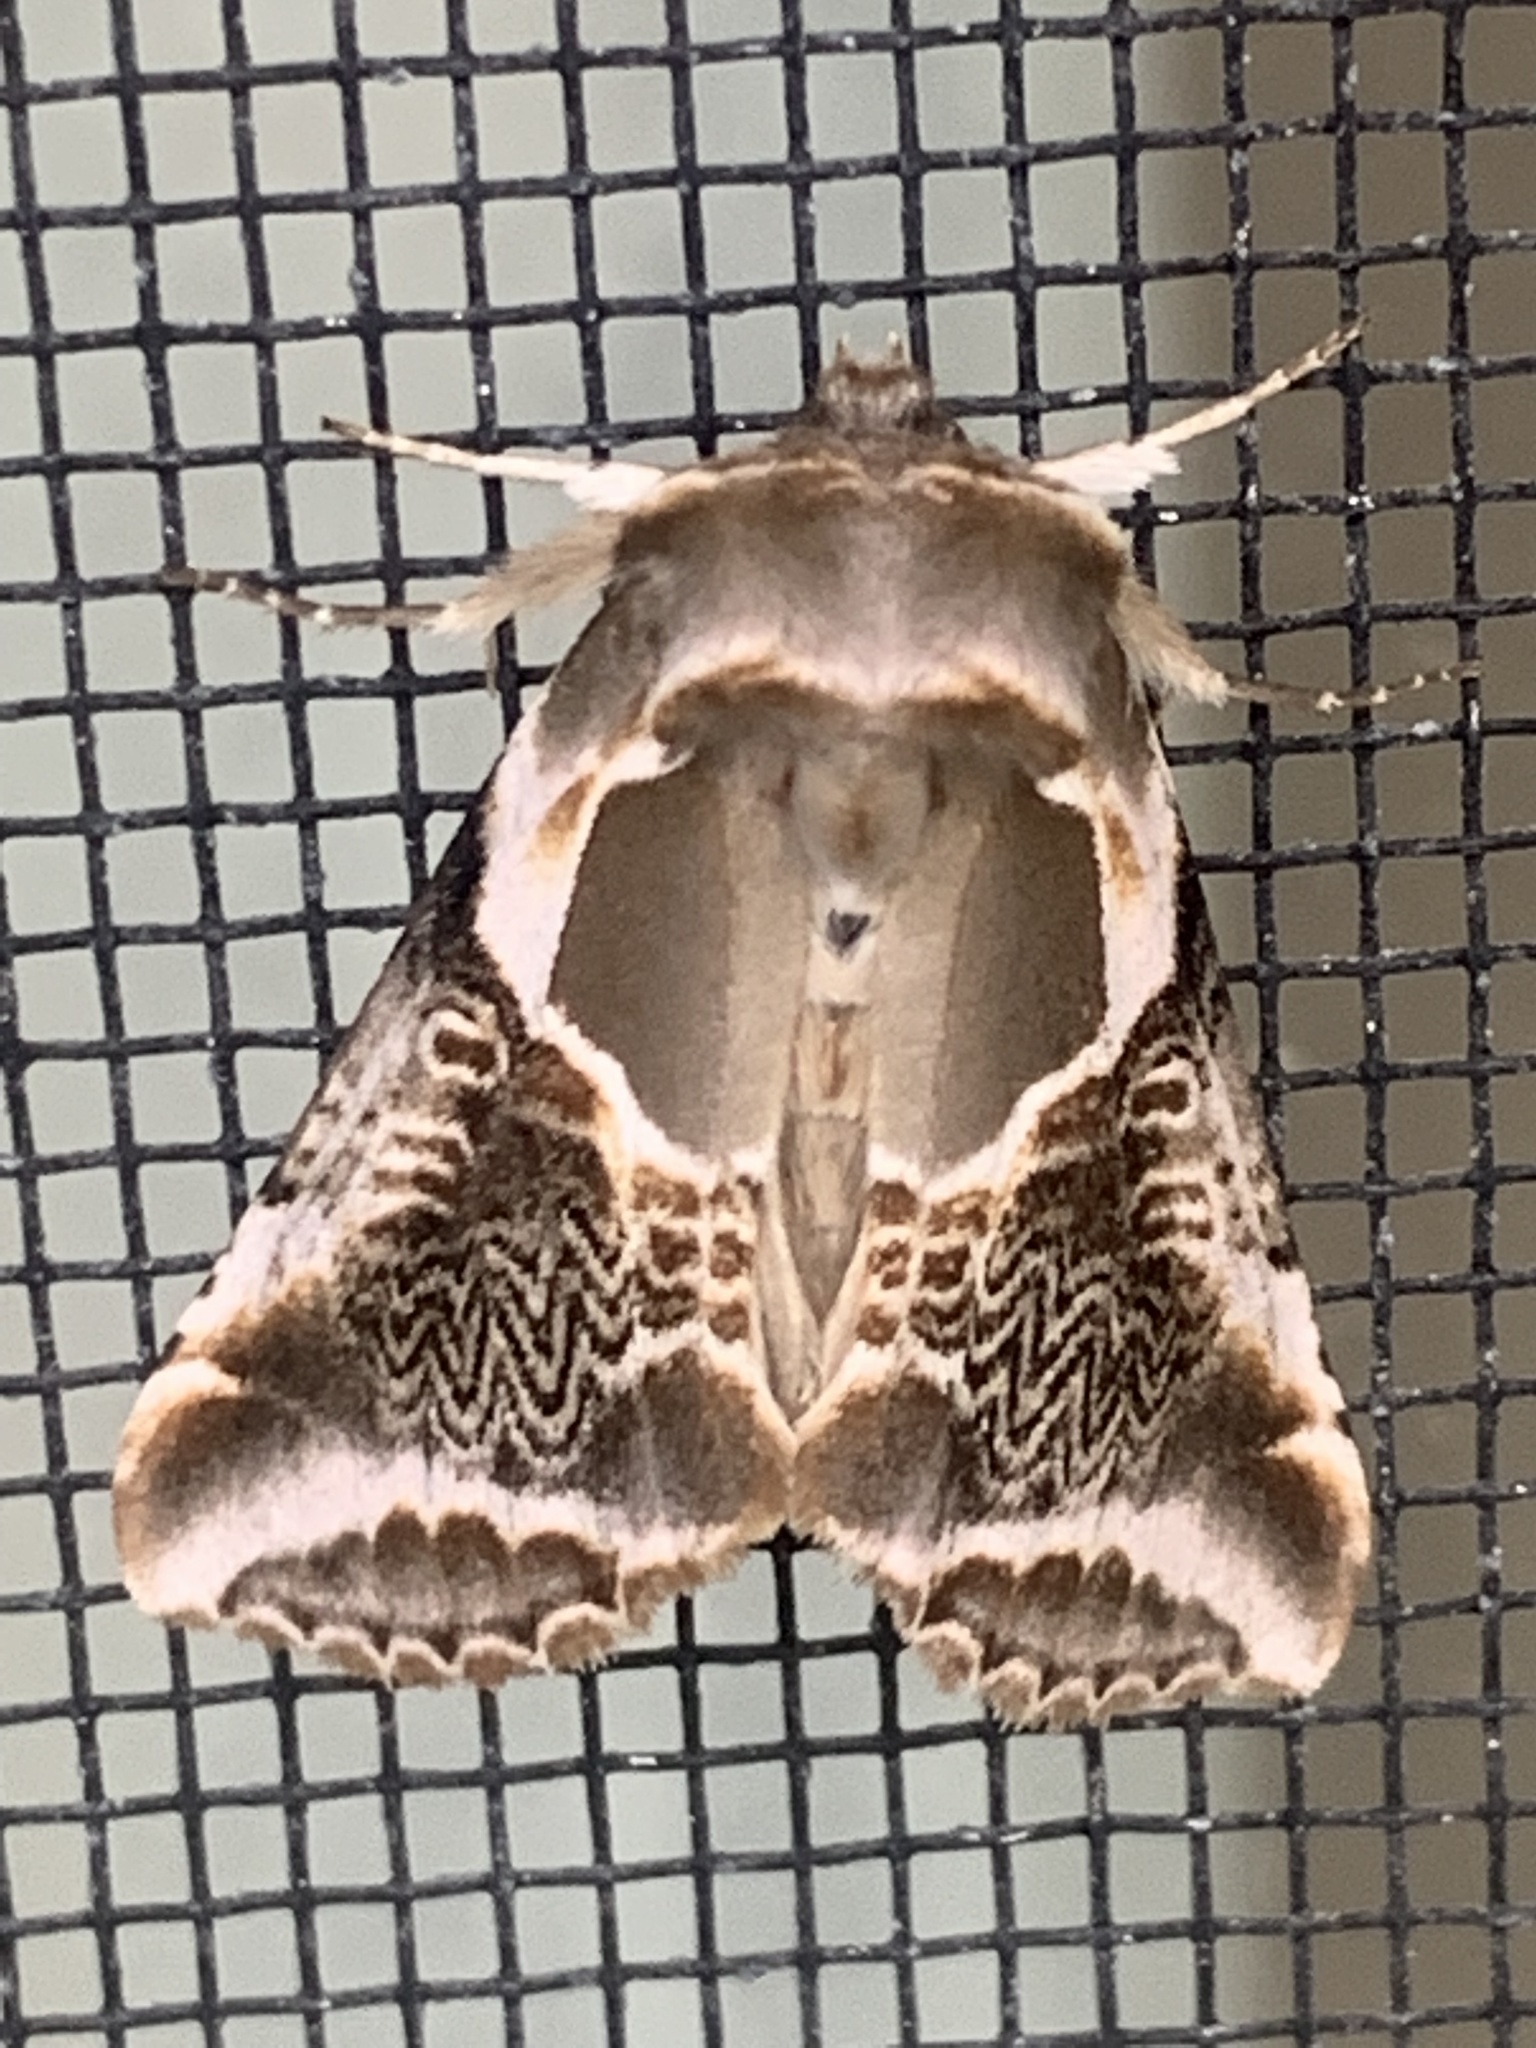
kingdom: Animalia
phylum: Arthropoda
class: Insecta
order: Lepidoptera
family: Drepanidae
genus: Habrosyne
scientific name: Habrosyne scripta
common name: Lettered habrosyne moth
